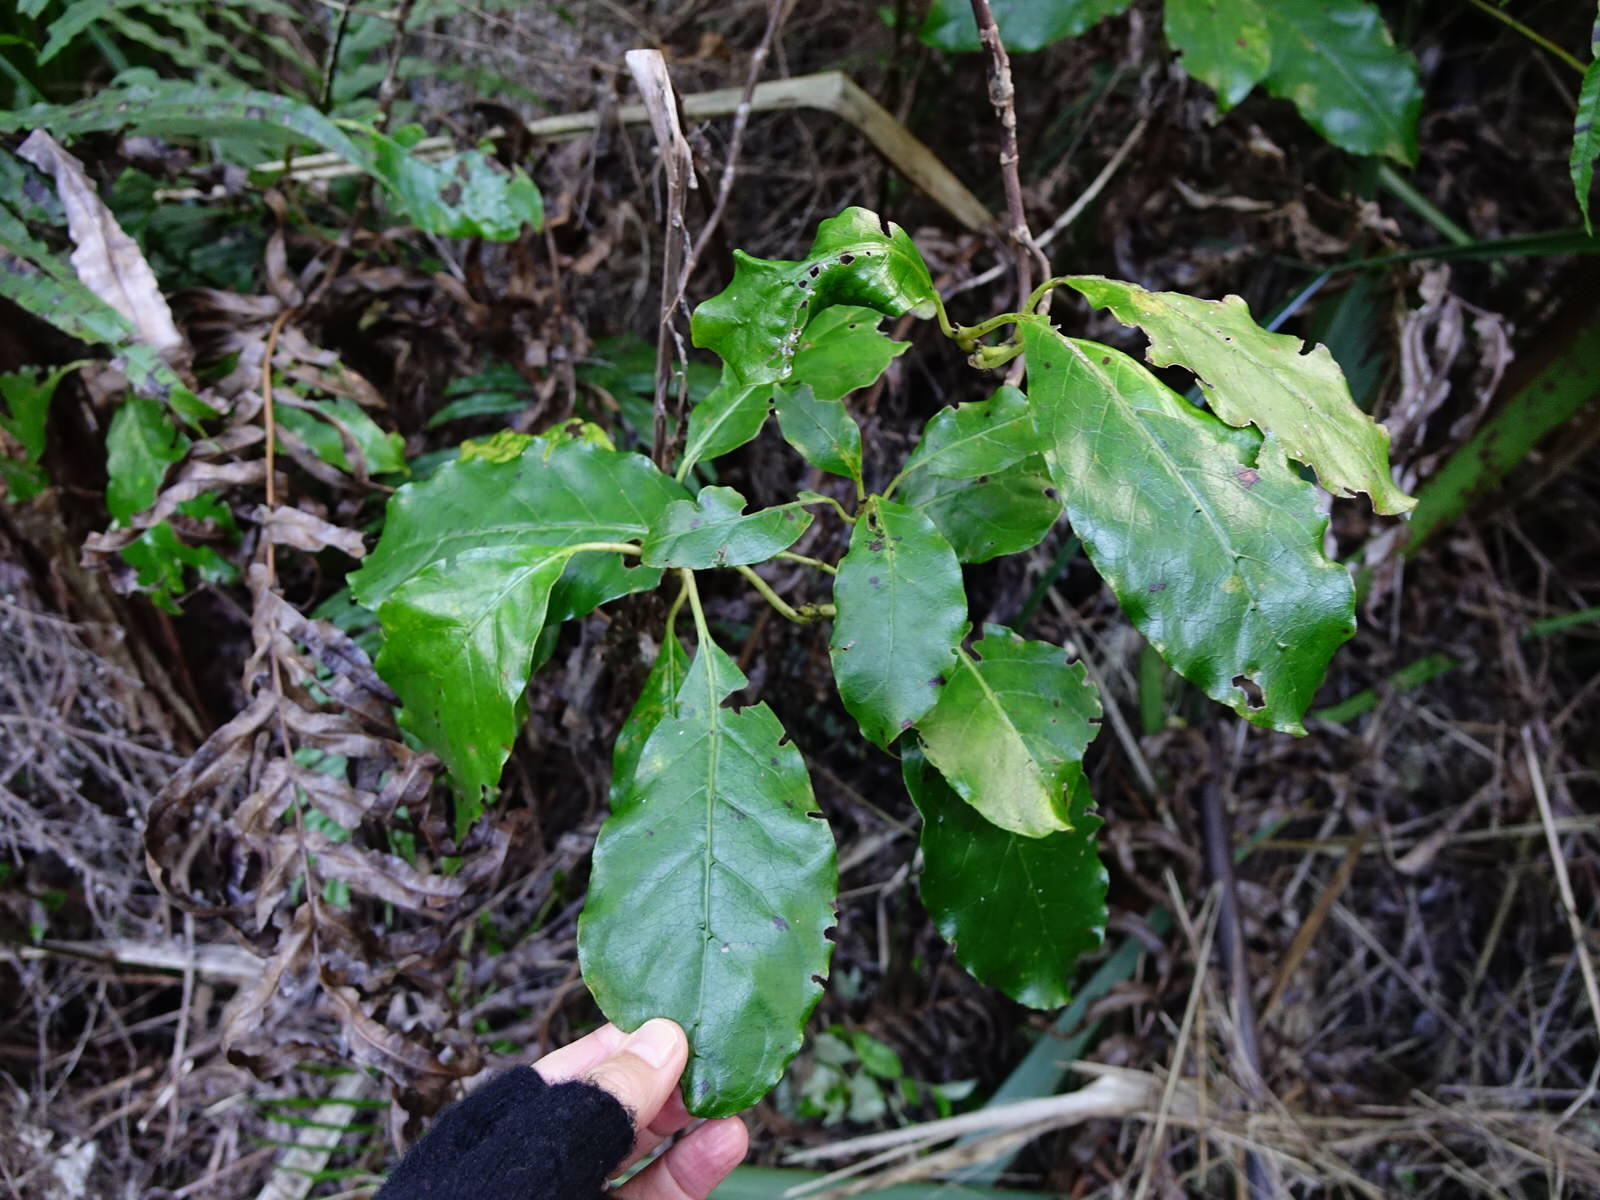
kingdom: Plantae
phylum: Tracheophyta
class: Magnoliopsida
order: Gentianales
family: Rubiaceae
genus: Coprosma
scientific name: Coprosma autumnalis
